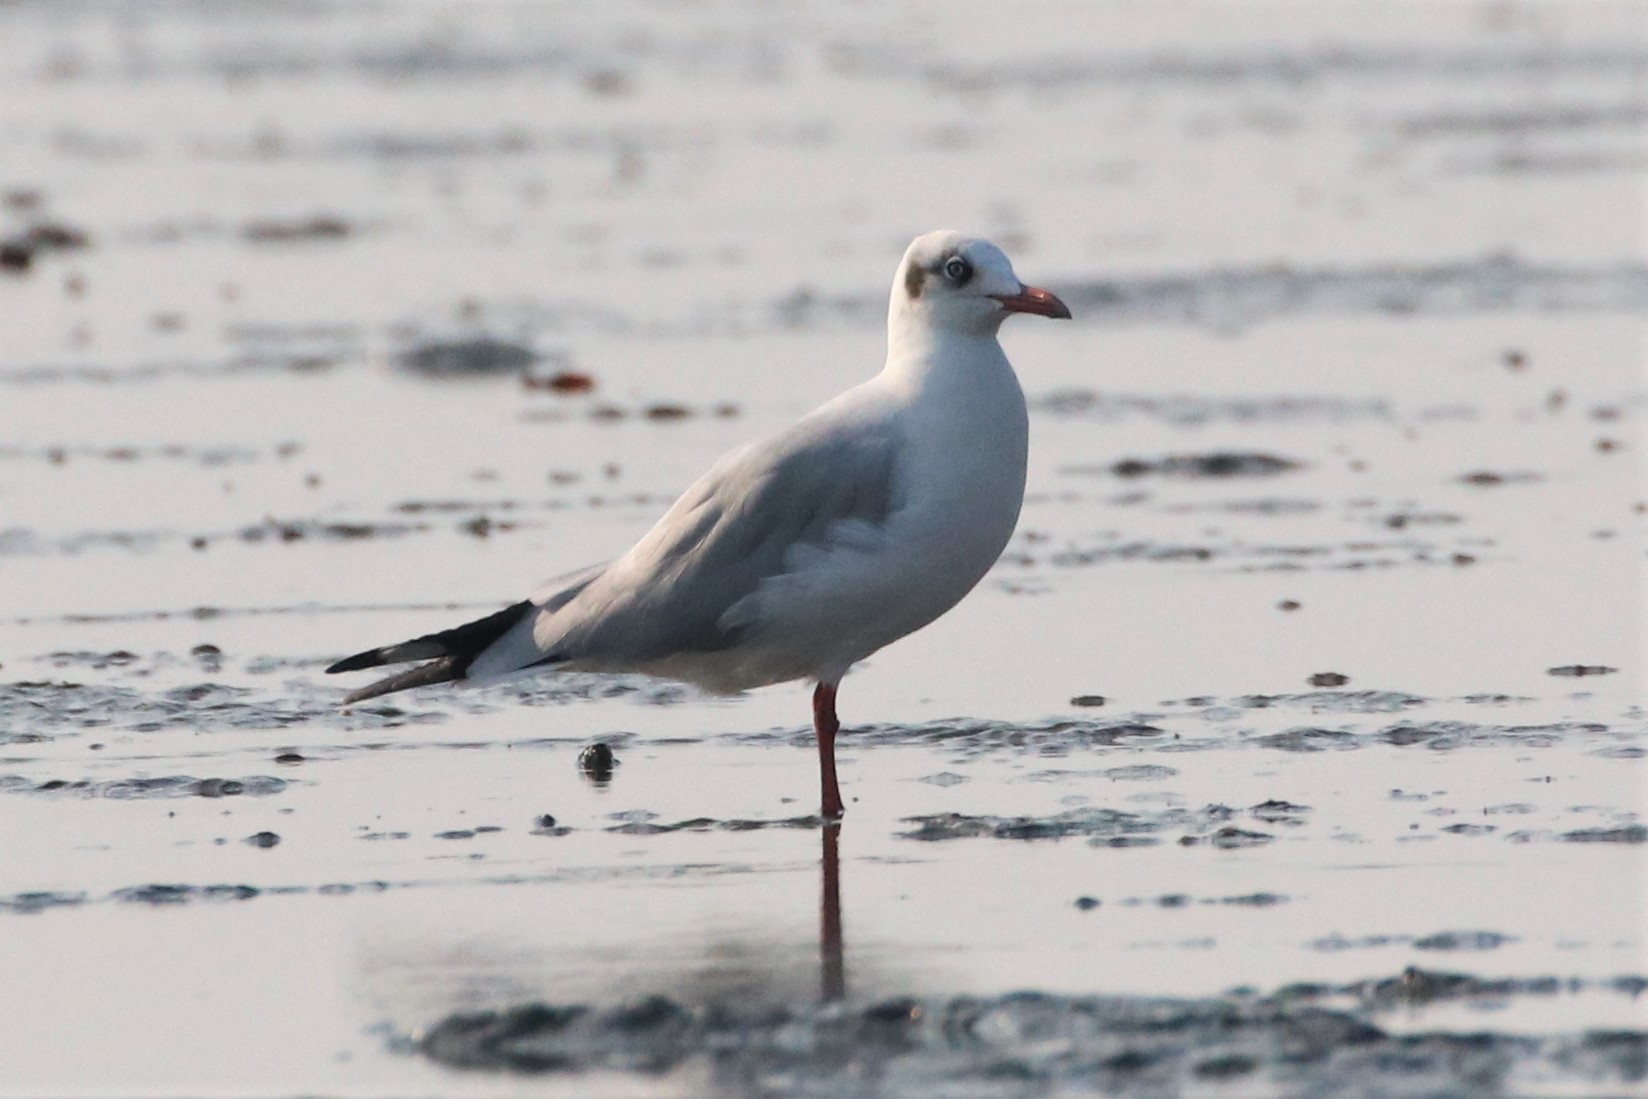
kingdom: Animalia
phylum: Chordata
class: Aves
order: Charadriiformes
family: Laridae
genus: Chroicocephalus
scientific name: Chroicocephalus brunnicephalus
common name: Brown-headed gull
